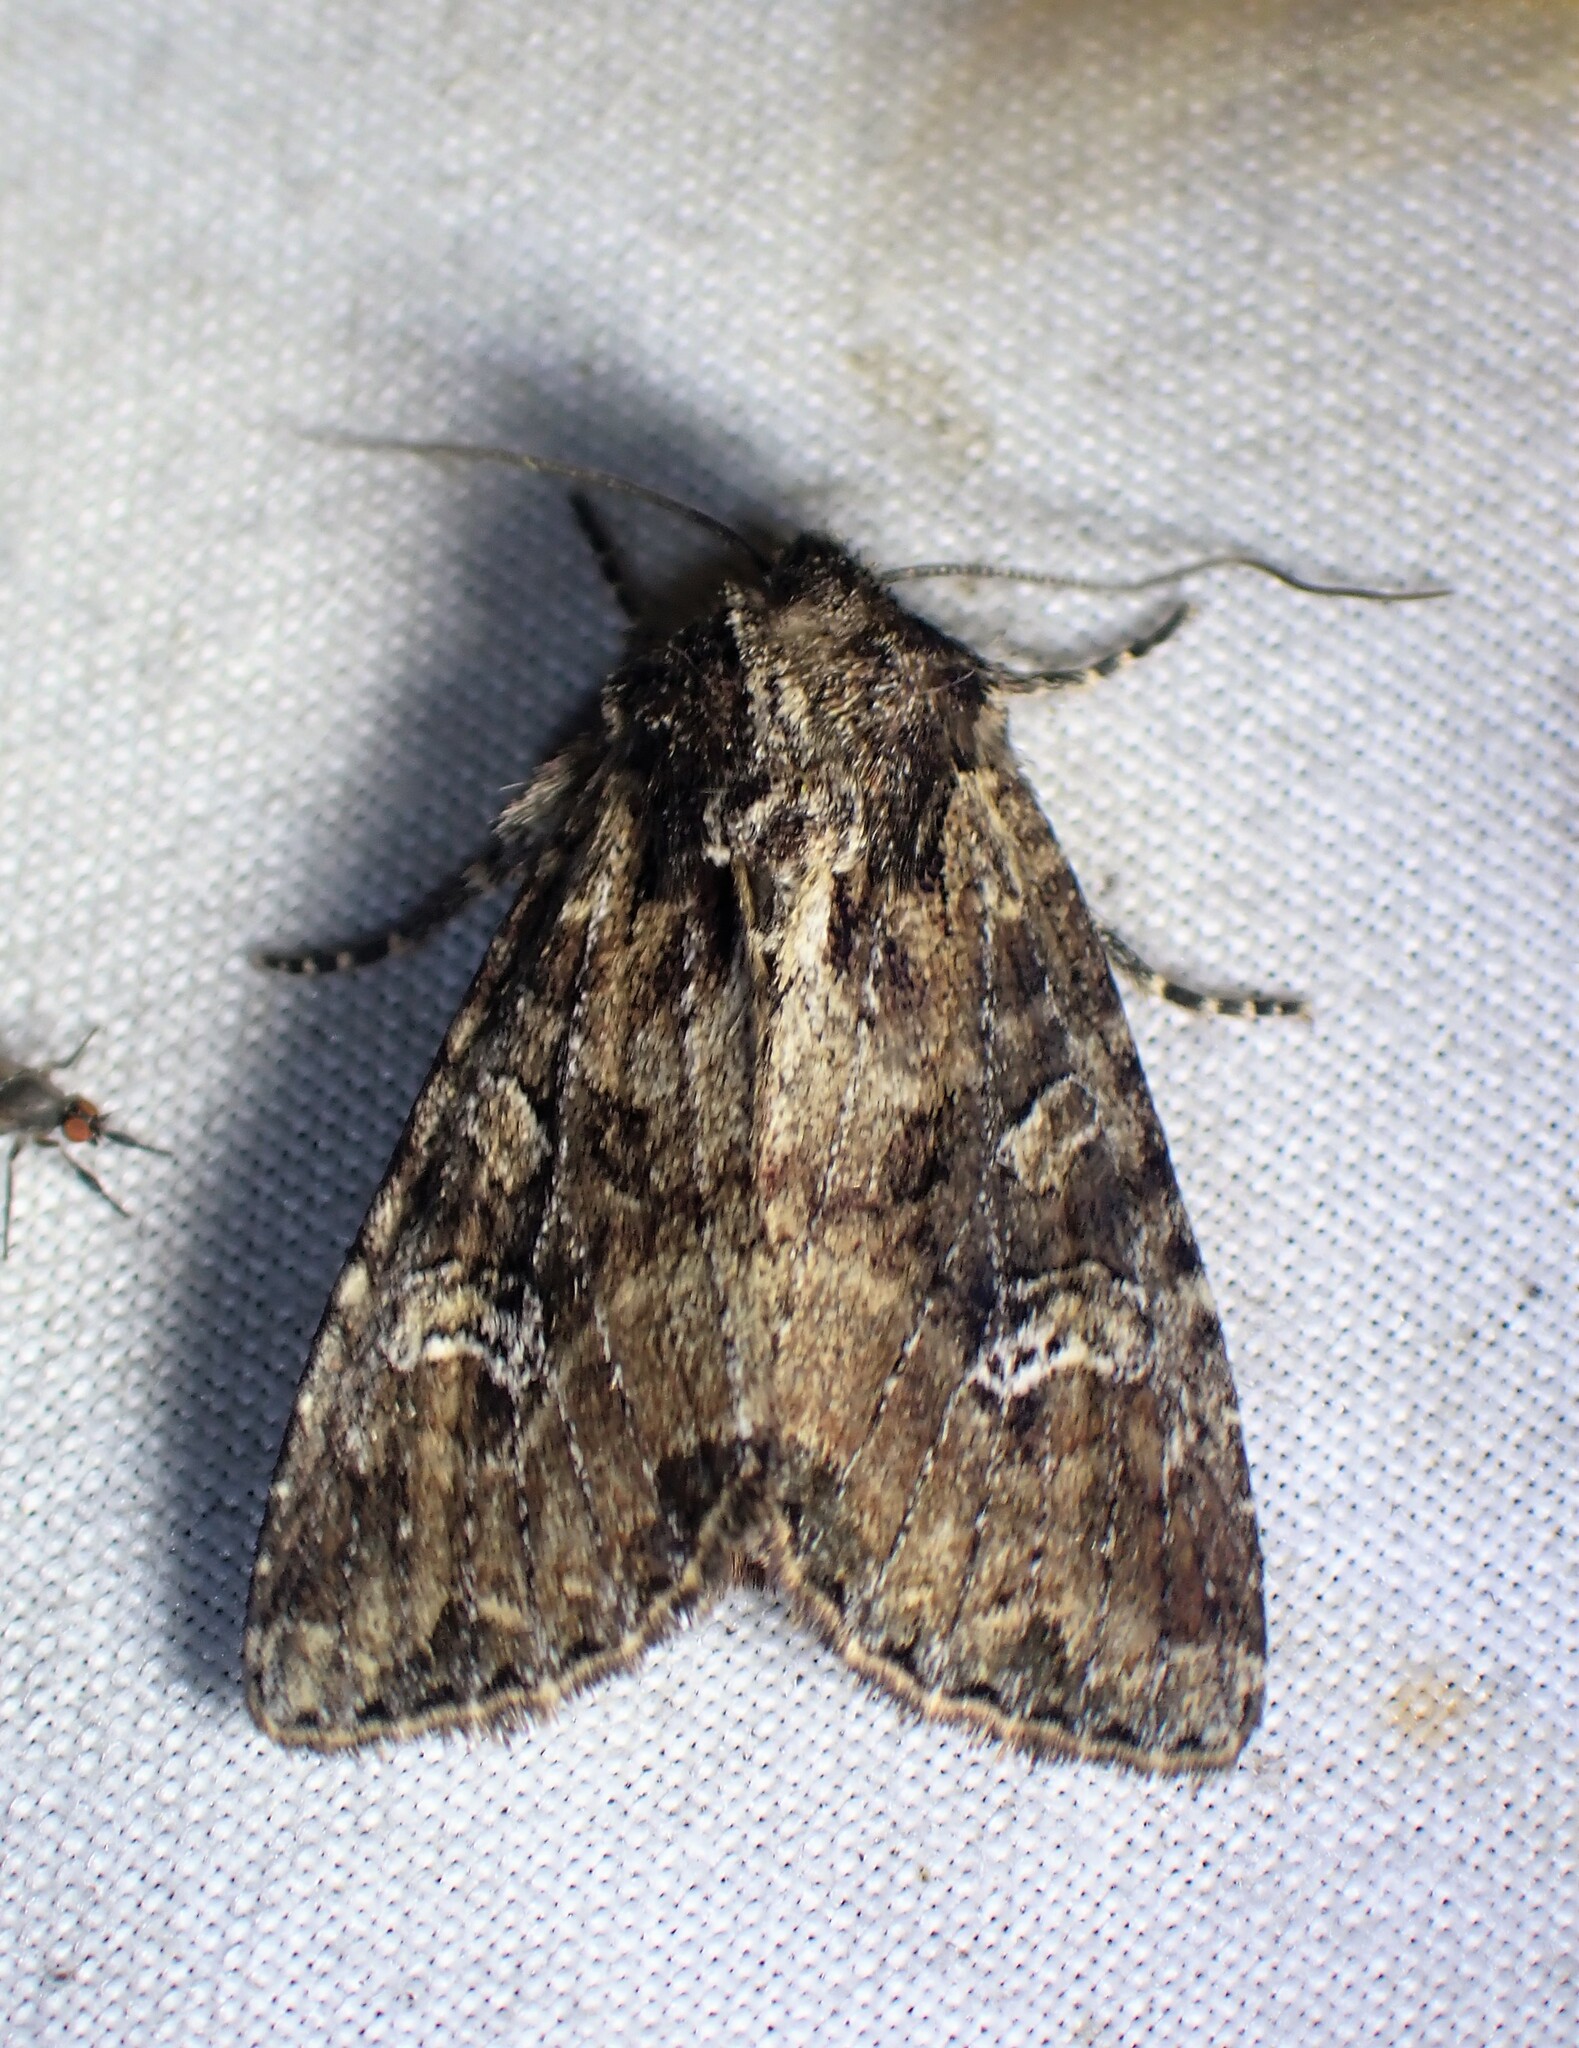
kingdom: Animalia
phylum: Arthropoda
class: Insecta
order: Lepidoptera
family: Noctuidae
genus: Apamea
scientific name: Apamea unanimis
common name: Small clouded brindle
